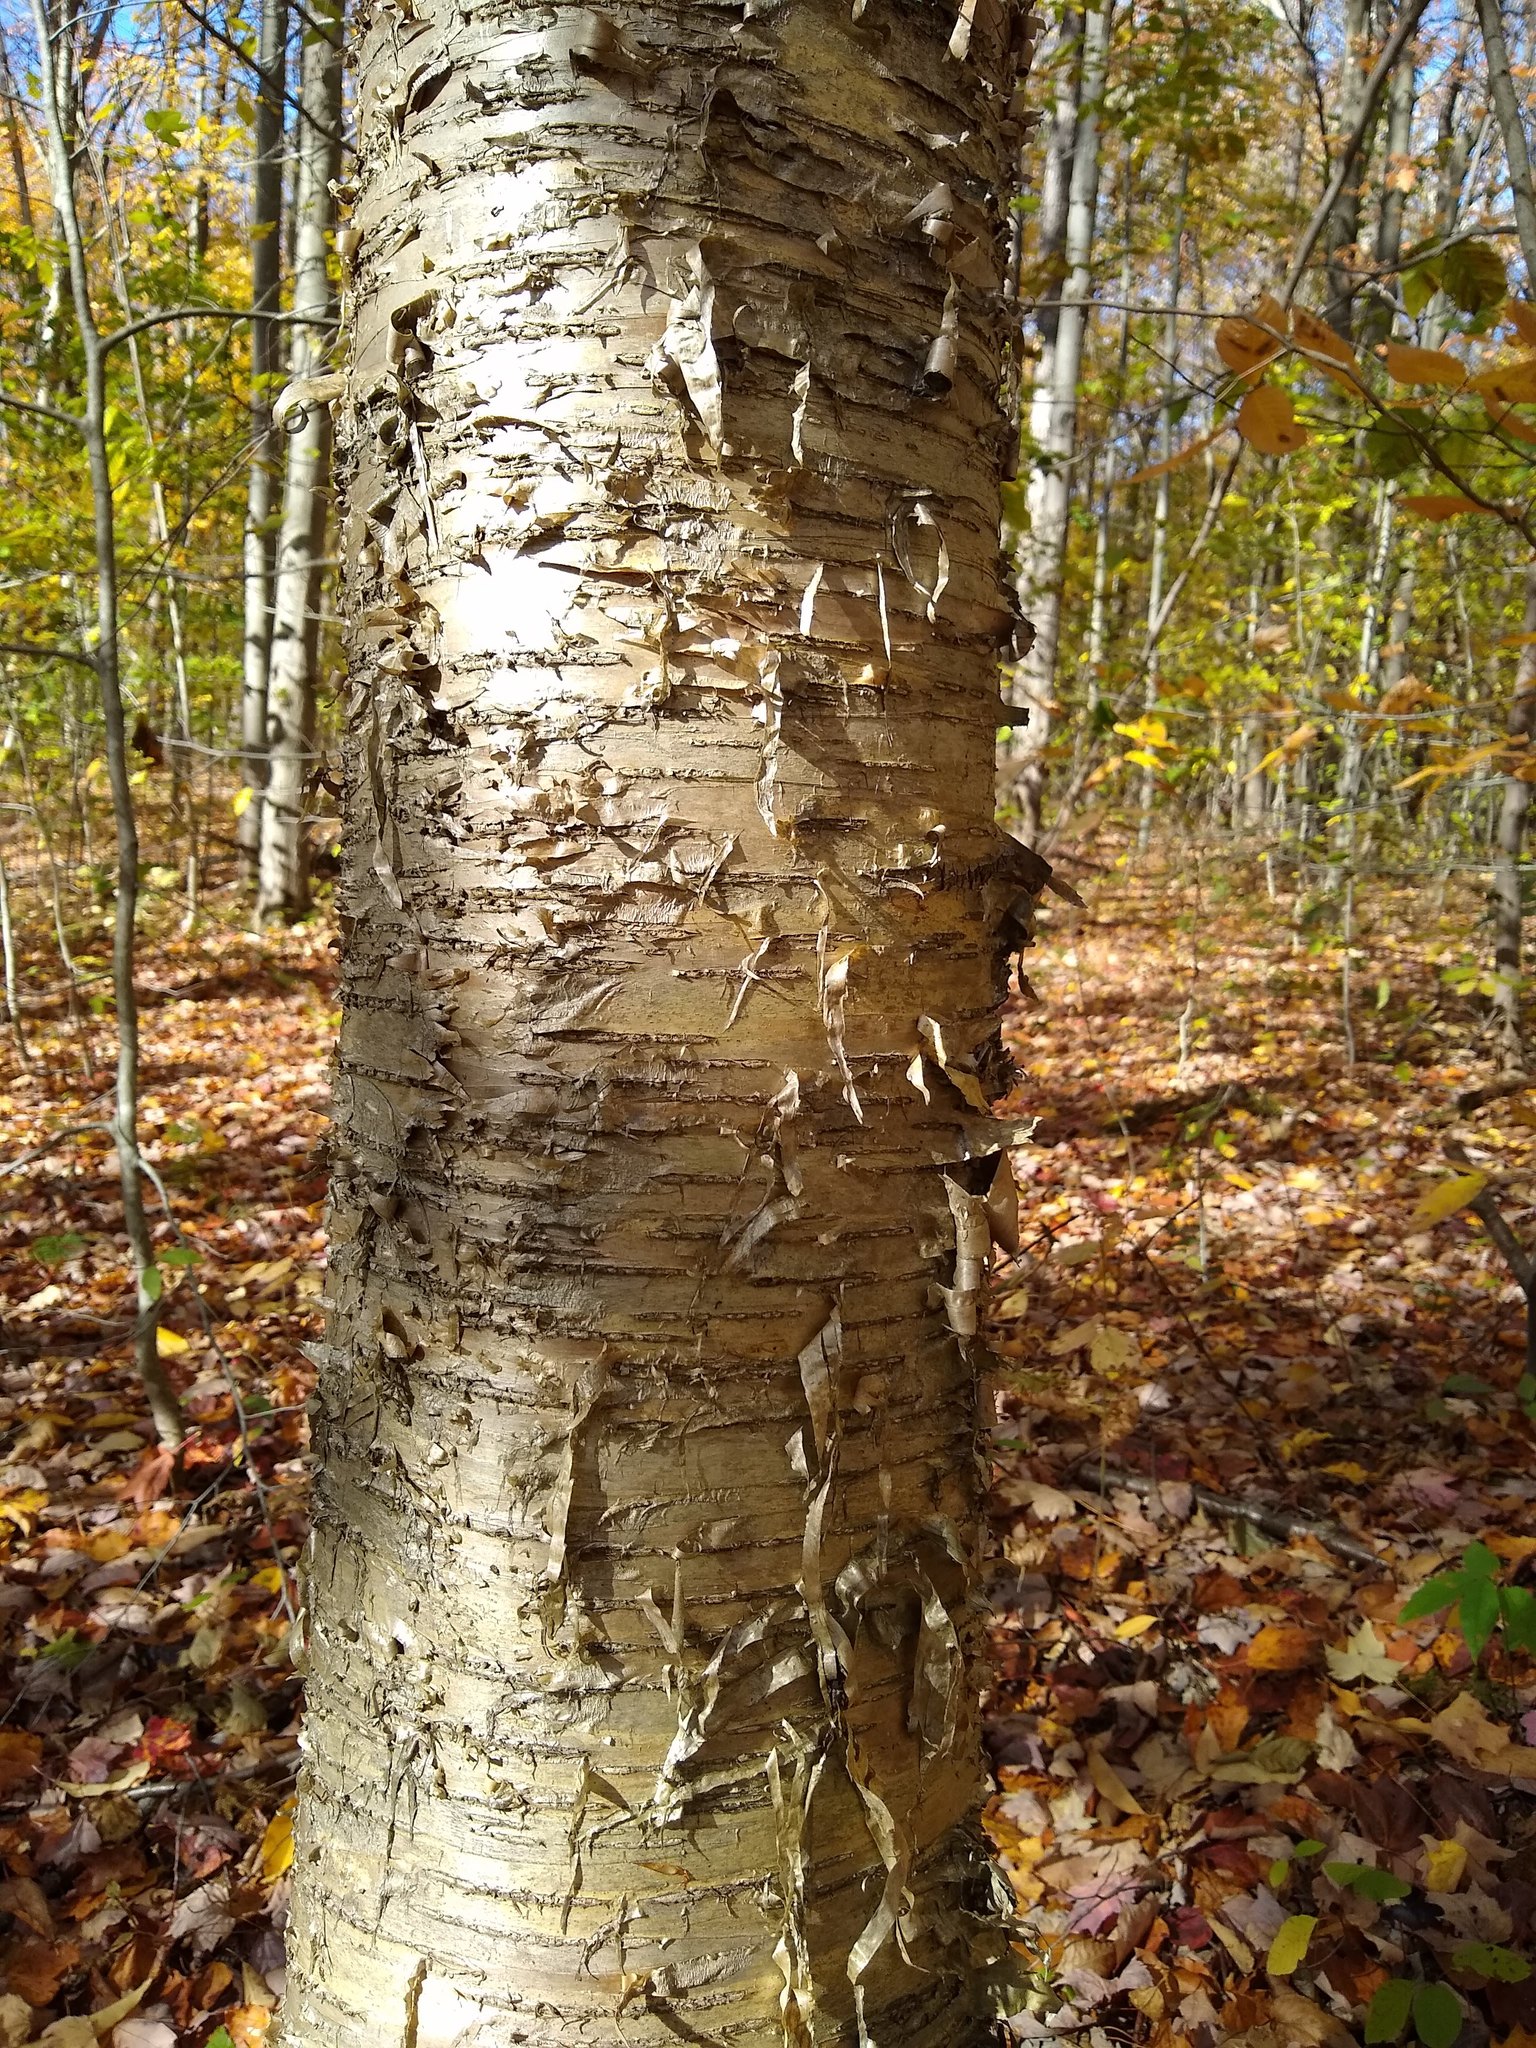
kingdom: Plantae
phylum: Tracheophyta
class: Magnoliopsida
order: Fagales
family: Betulaceae
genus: Betula
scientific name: Betula alleghaniensis
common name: Yellow birch
